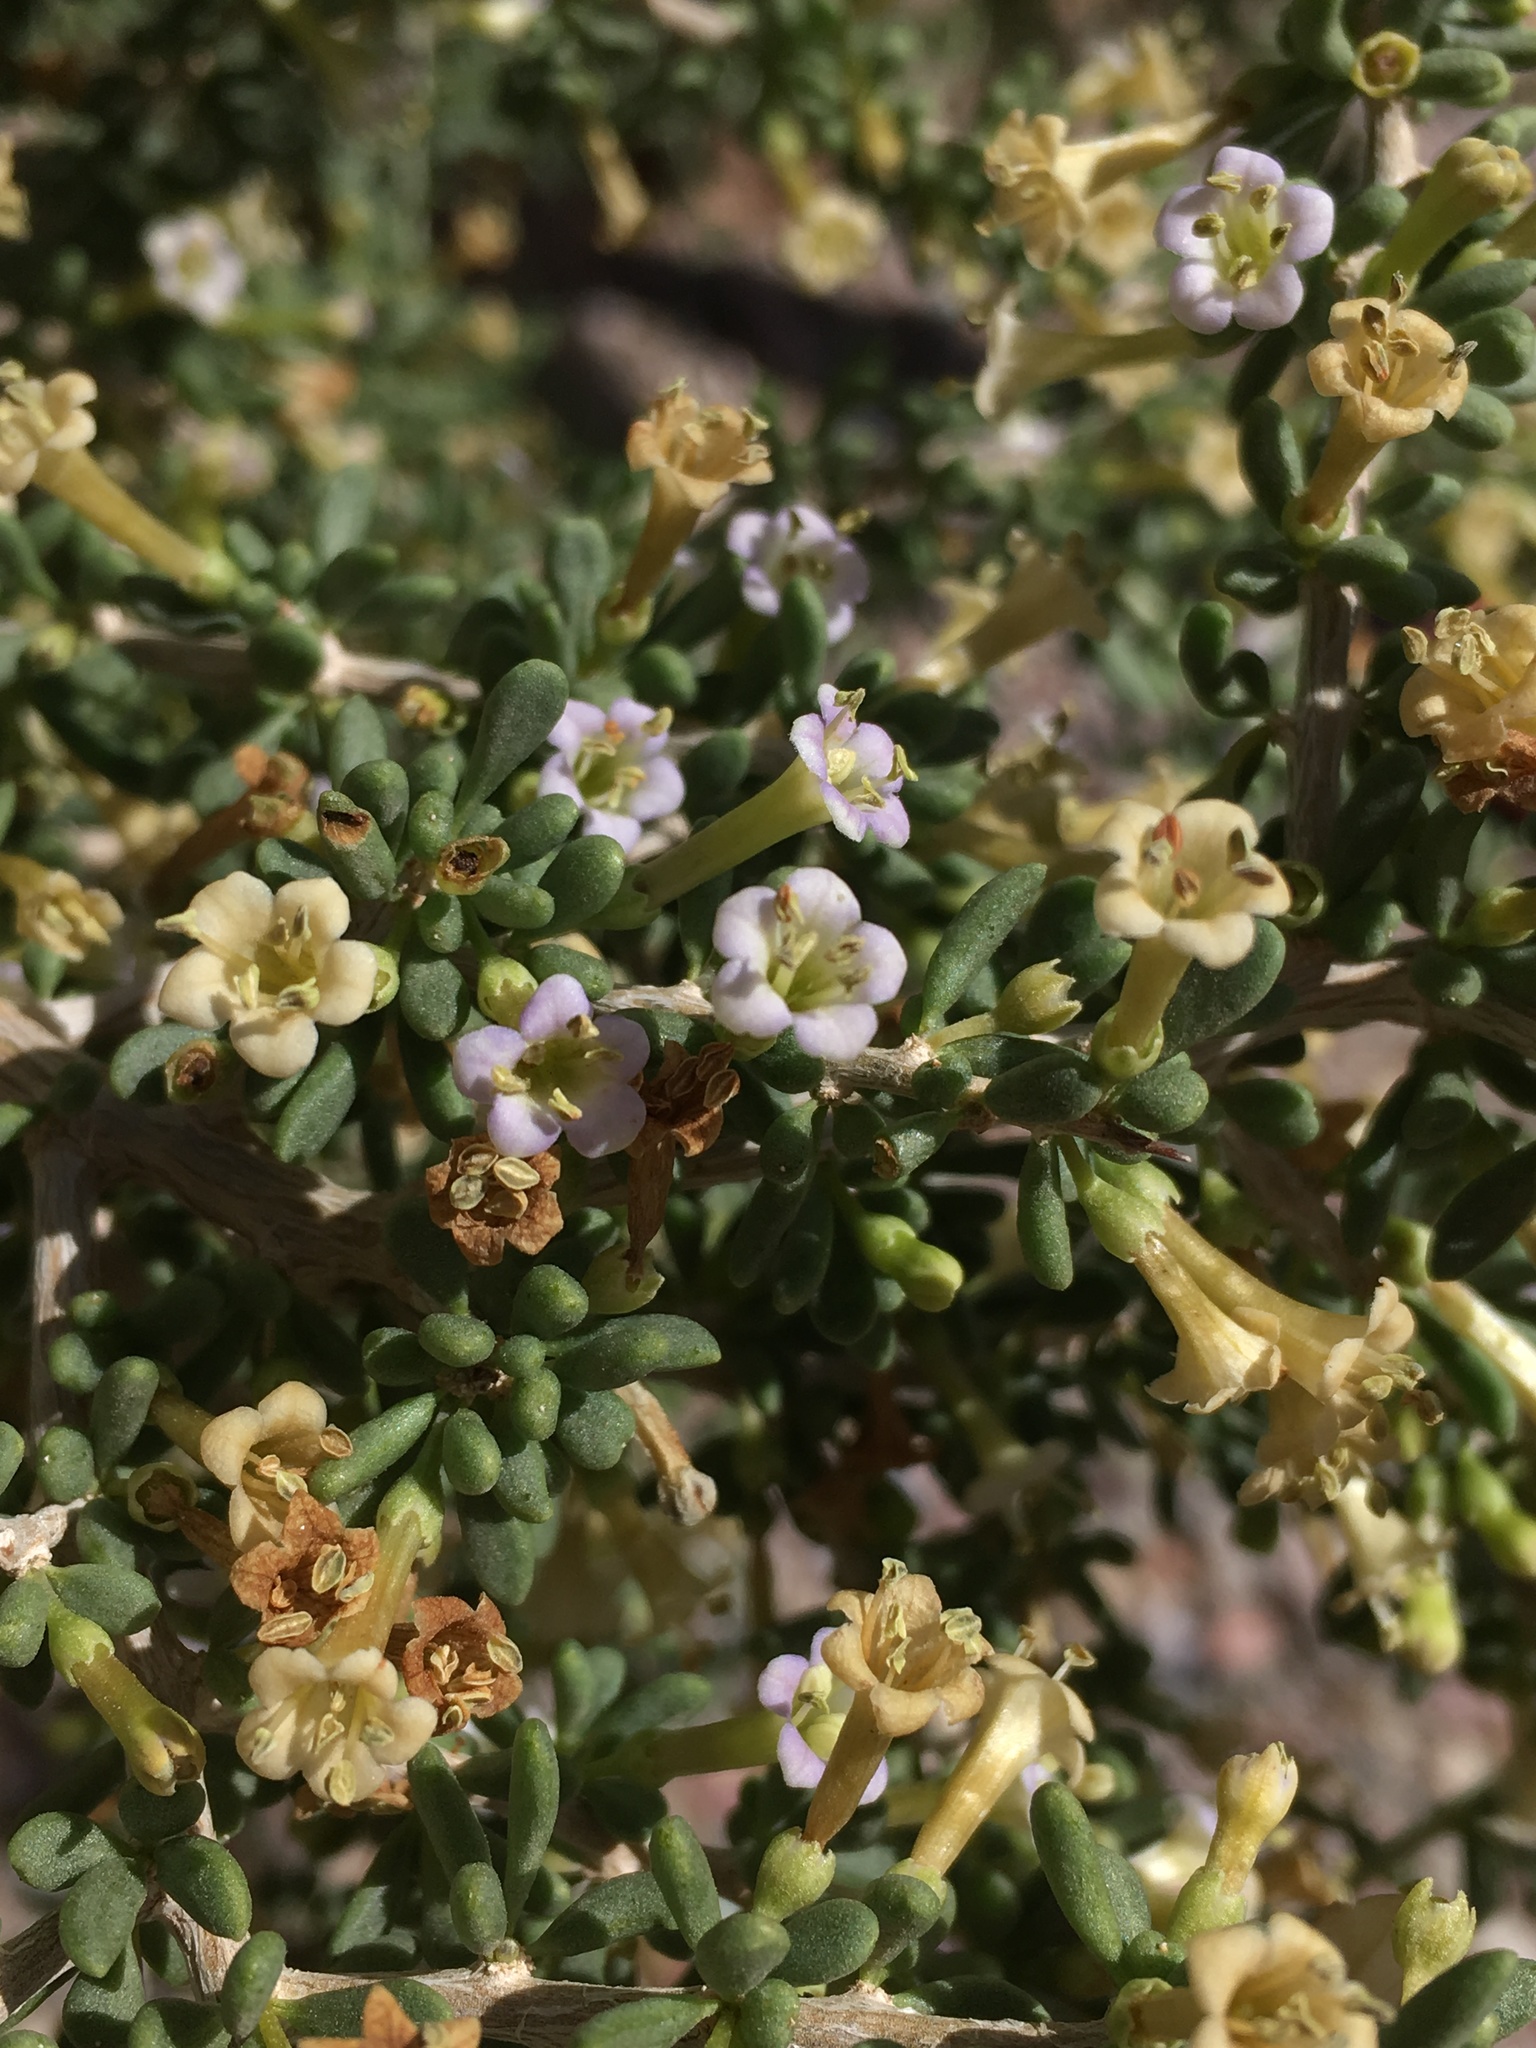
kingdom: Plantae
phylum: Tracheophyta
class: Magnoliopsida
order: Solanales
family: Solanaceae
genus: Lycium
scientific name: Lycium andersonii
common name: Water-jacket
